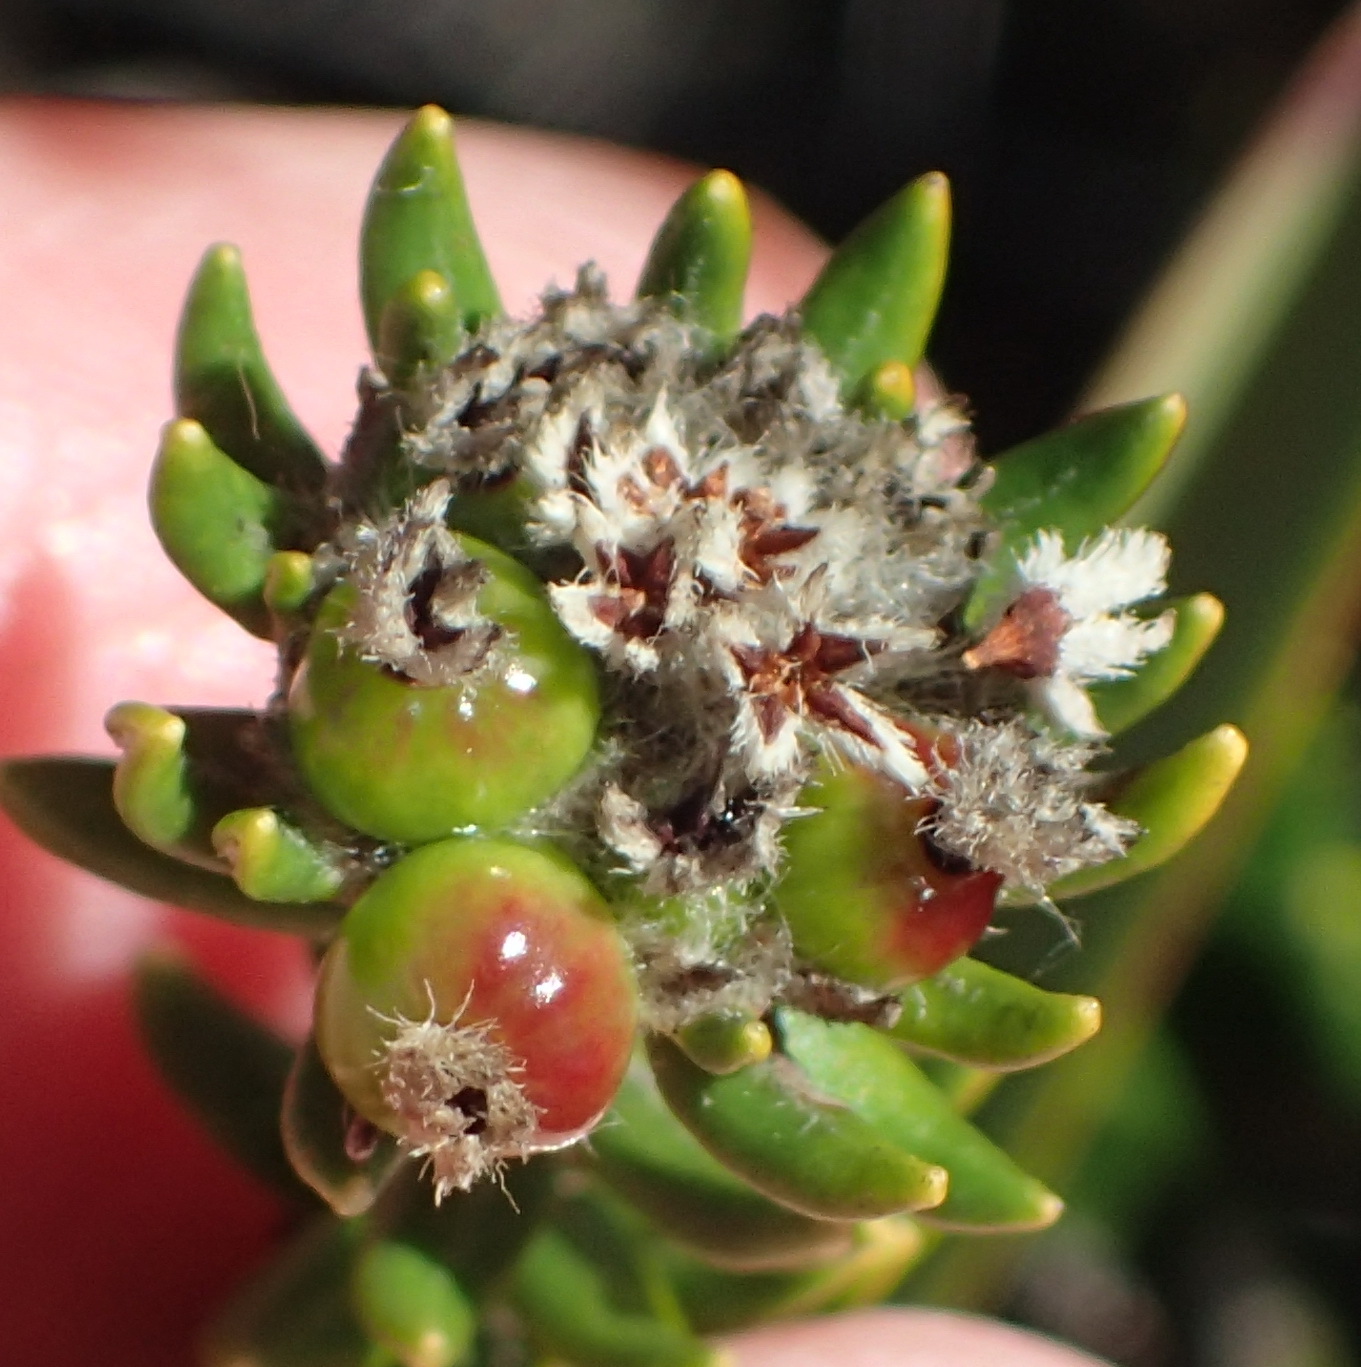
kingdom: Plantae
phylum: Tracheophyta
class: Magnoliopsida
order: Rosales
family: Rhamnaceae
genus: Phylica
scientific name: Phylica litoralis
